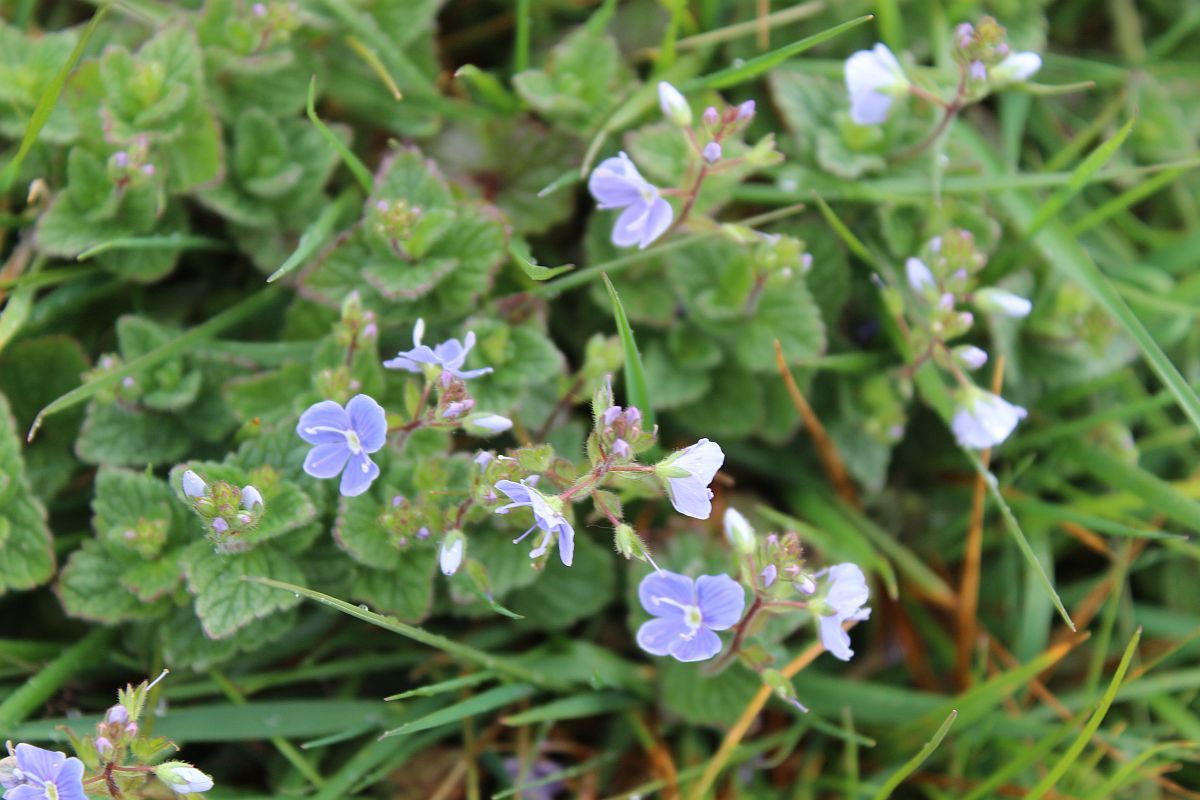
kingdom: Plantae
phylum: Tracheophyta
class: Magnoliopsida
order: Lamiales
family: Plantaginaceae
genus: Veronica
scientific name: Veronica chamaedrys
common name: Germander speedwell
